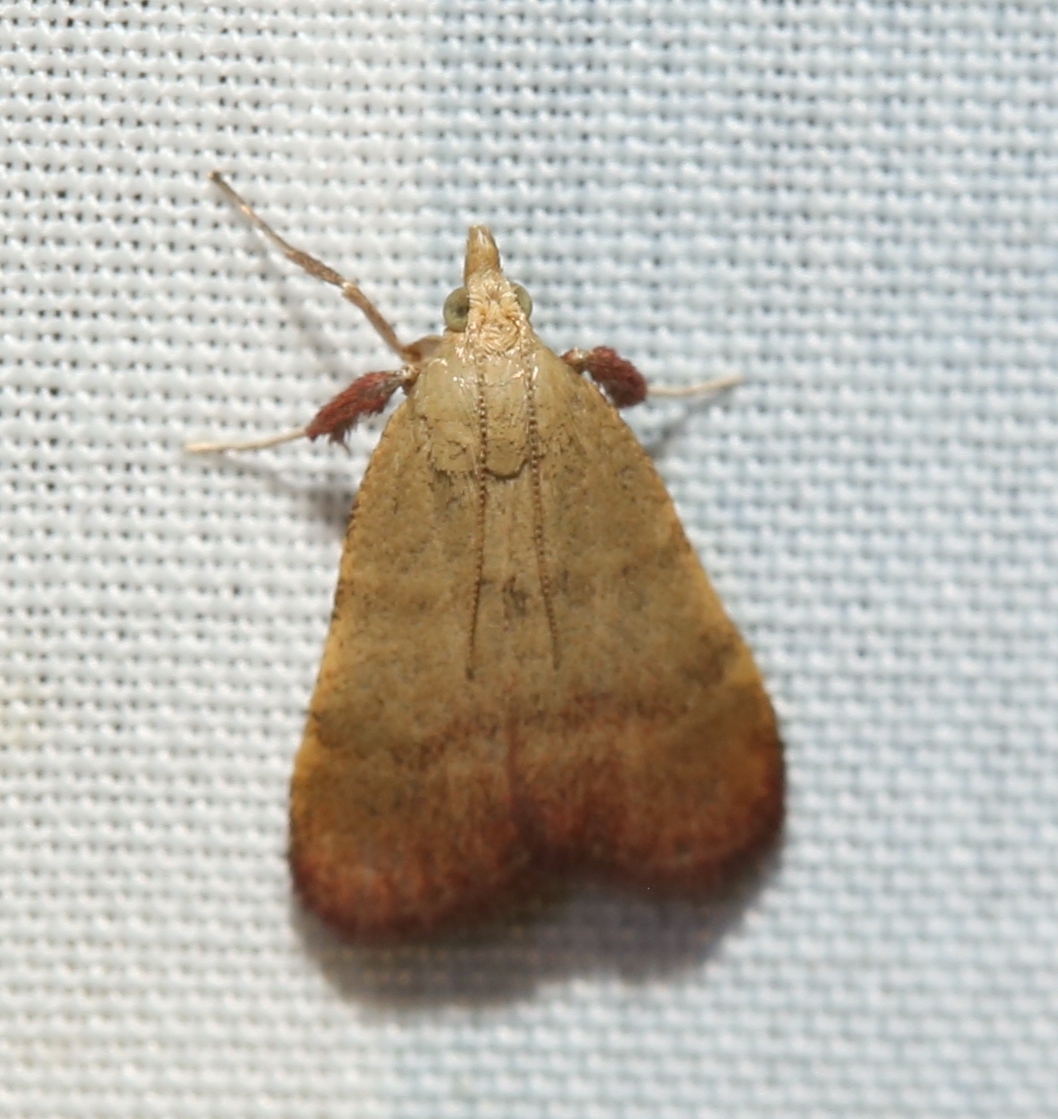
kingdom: Animalia
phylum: Arthropoda
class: Insecta
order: Lepidoptera
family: Pyralidae
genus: Condylolomia
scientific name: Condylolomia participialis
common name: Drab condylolomia moth
